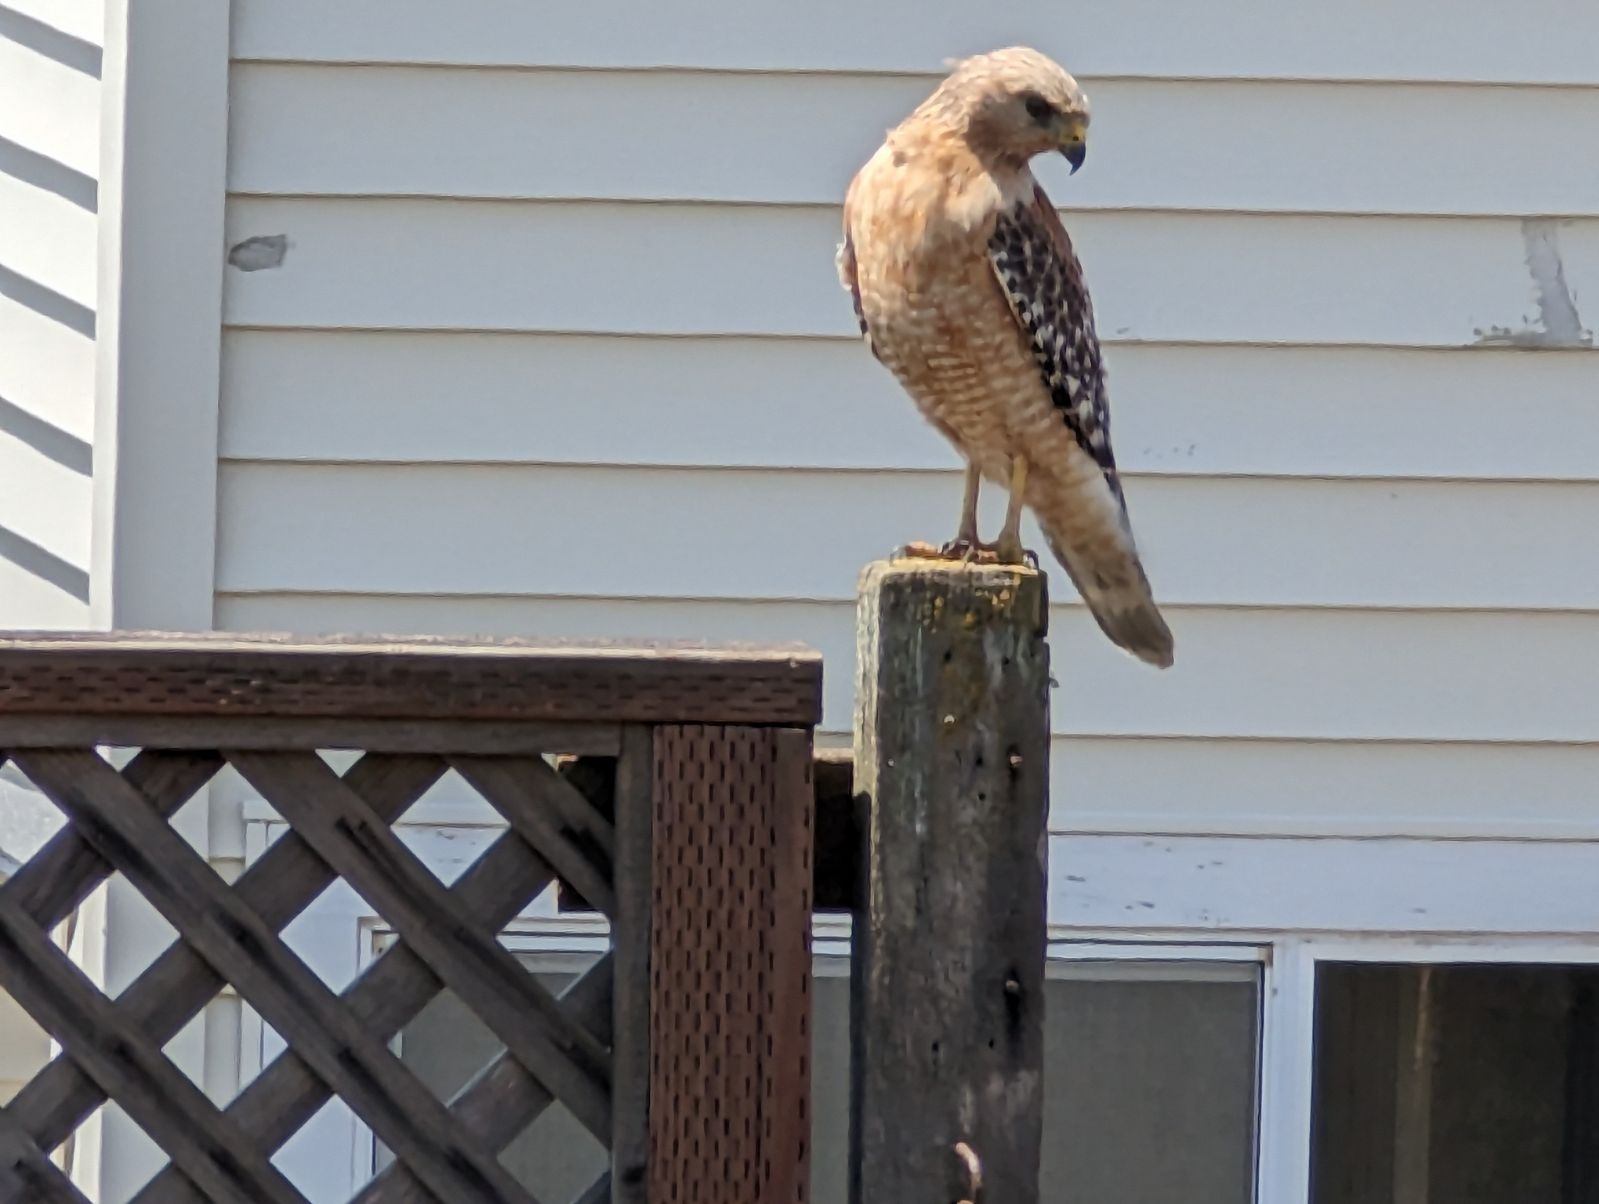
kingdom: Animalia
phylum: Chordata
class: Aves
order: Accipitriformes
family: Accipitridae
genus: Buteo
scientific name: Buteo lineatus
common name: Red-shouldered hawk
